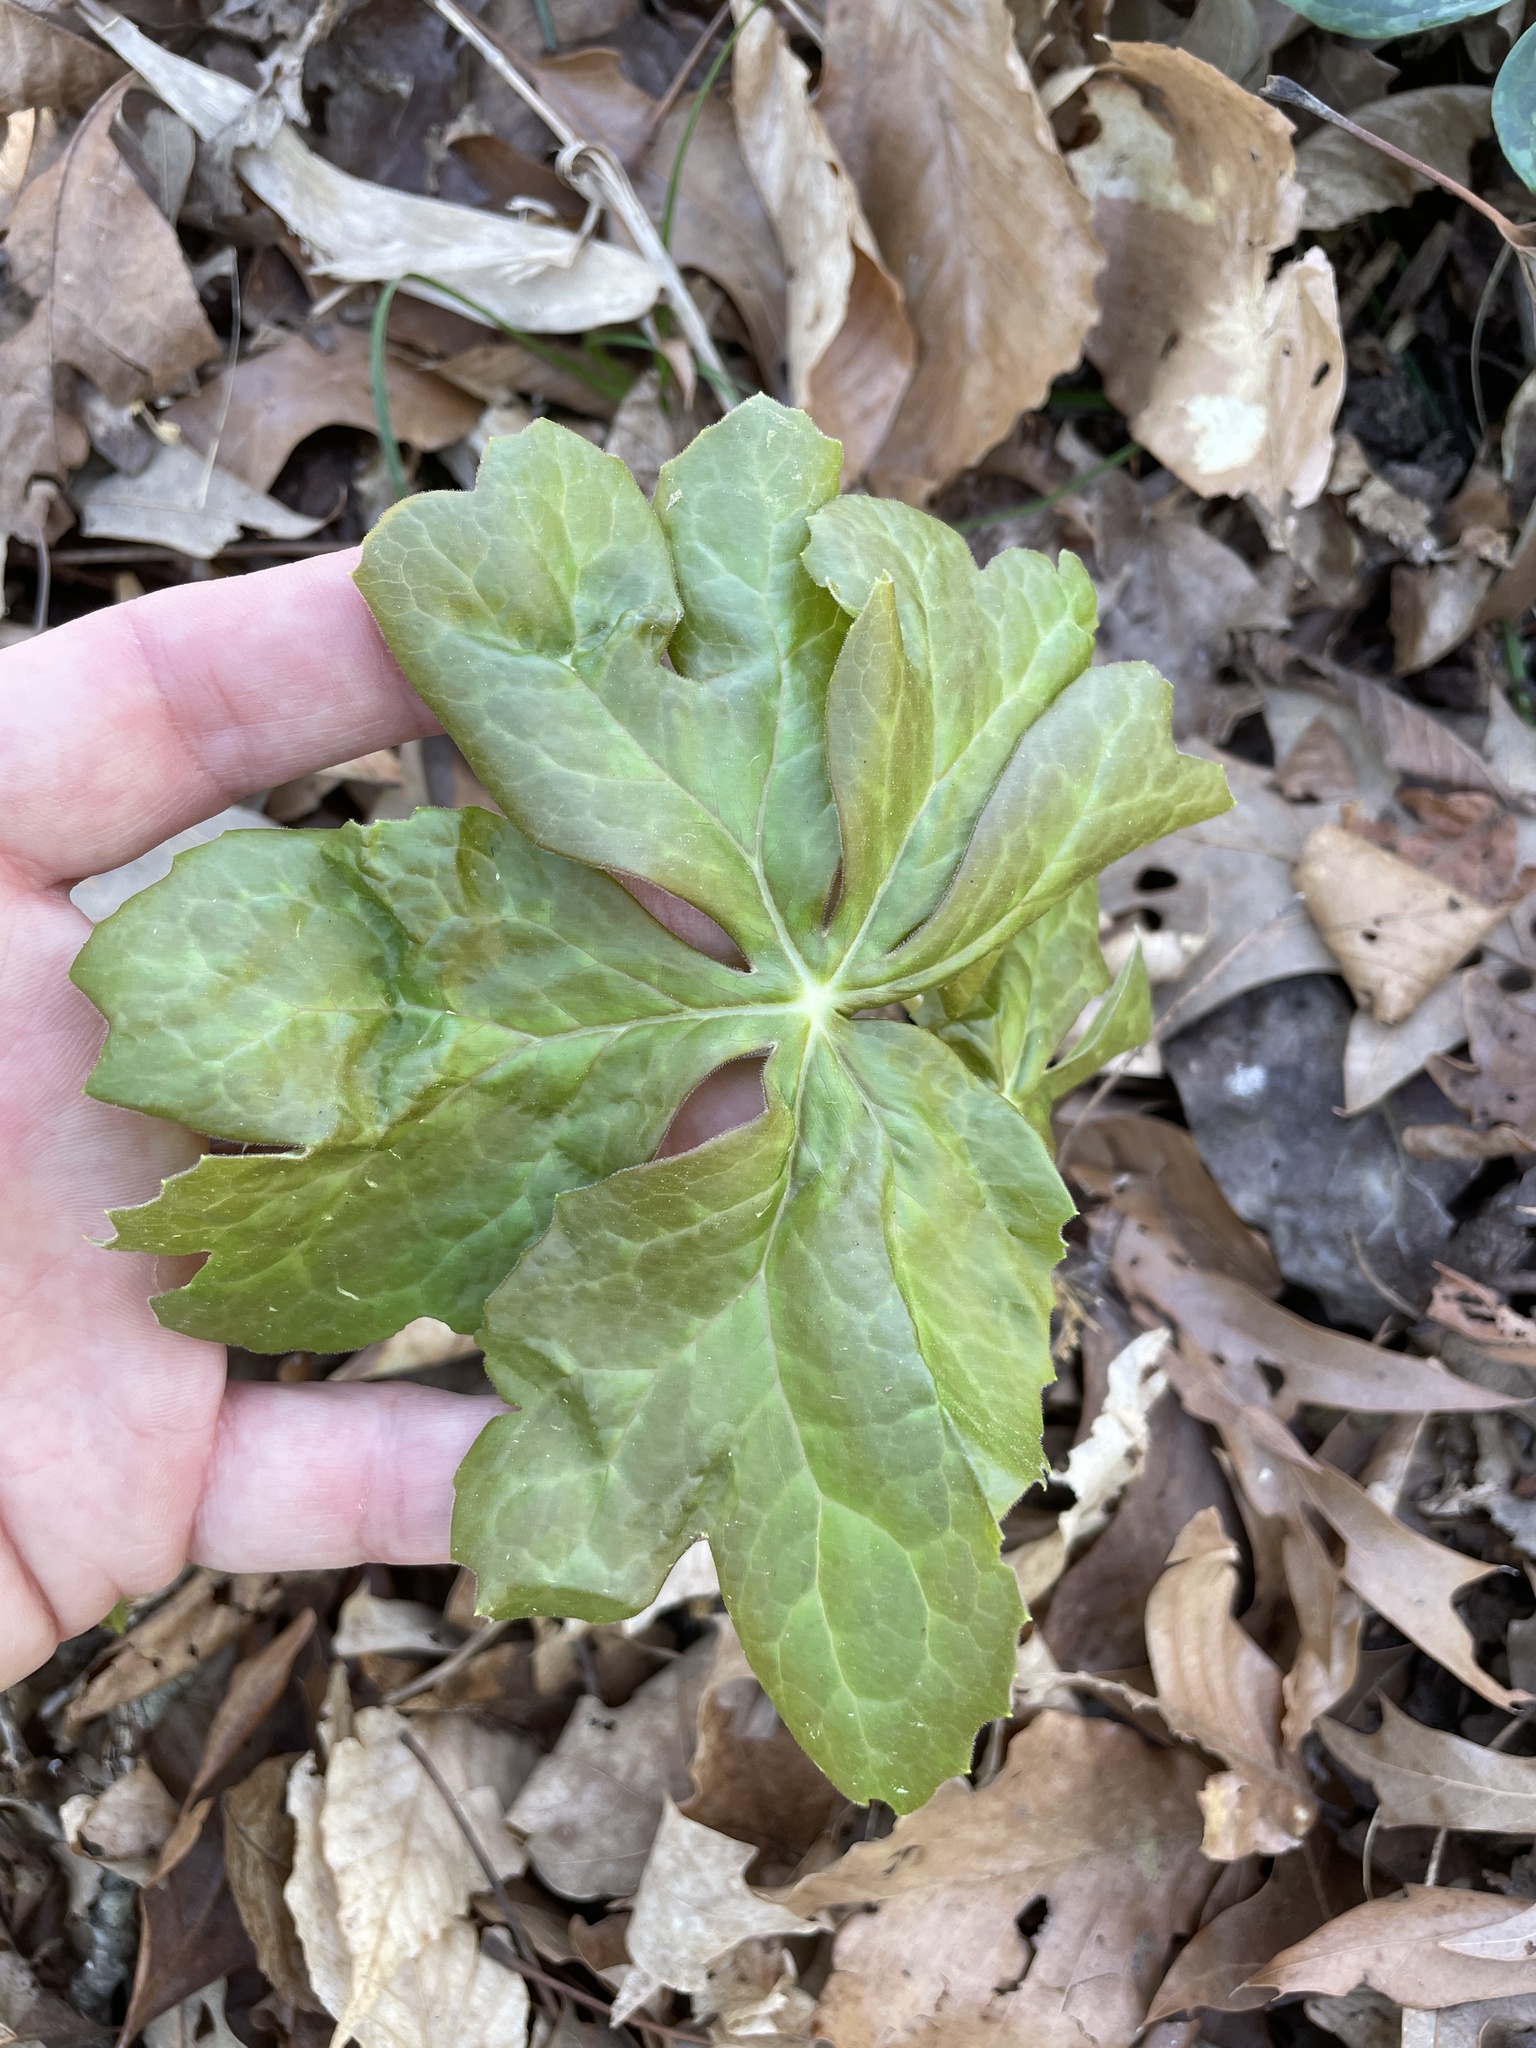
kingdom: Plantae
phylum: Tracheophyta
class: Magnoliopsida
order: Ranunculales
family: Berberidaceae
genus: Podophyllum
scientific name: Podophyllum peltatum
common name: Wild mandrake
